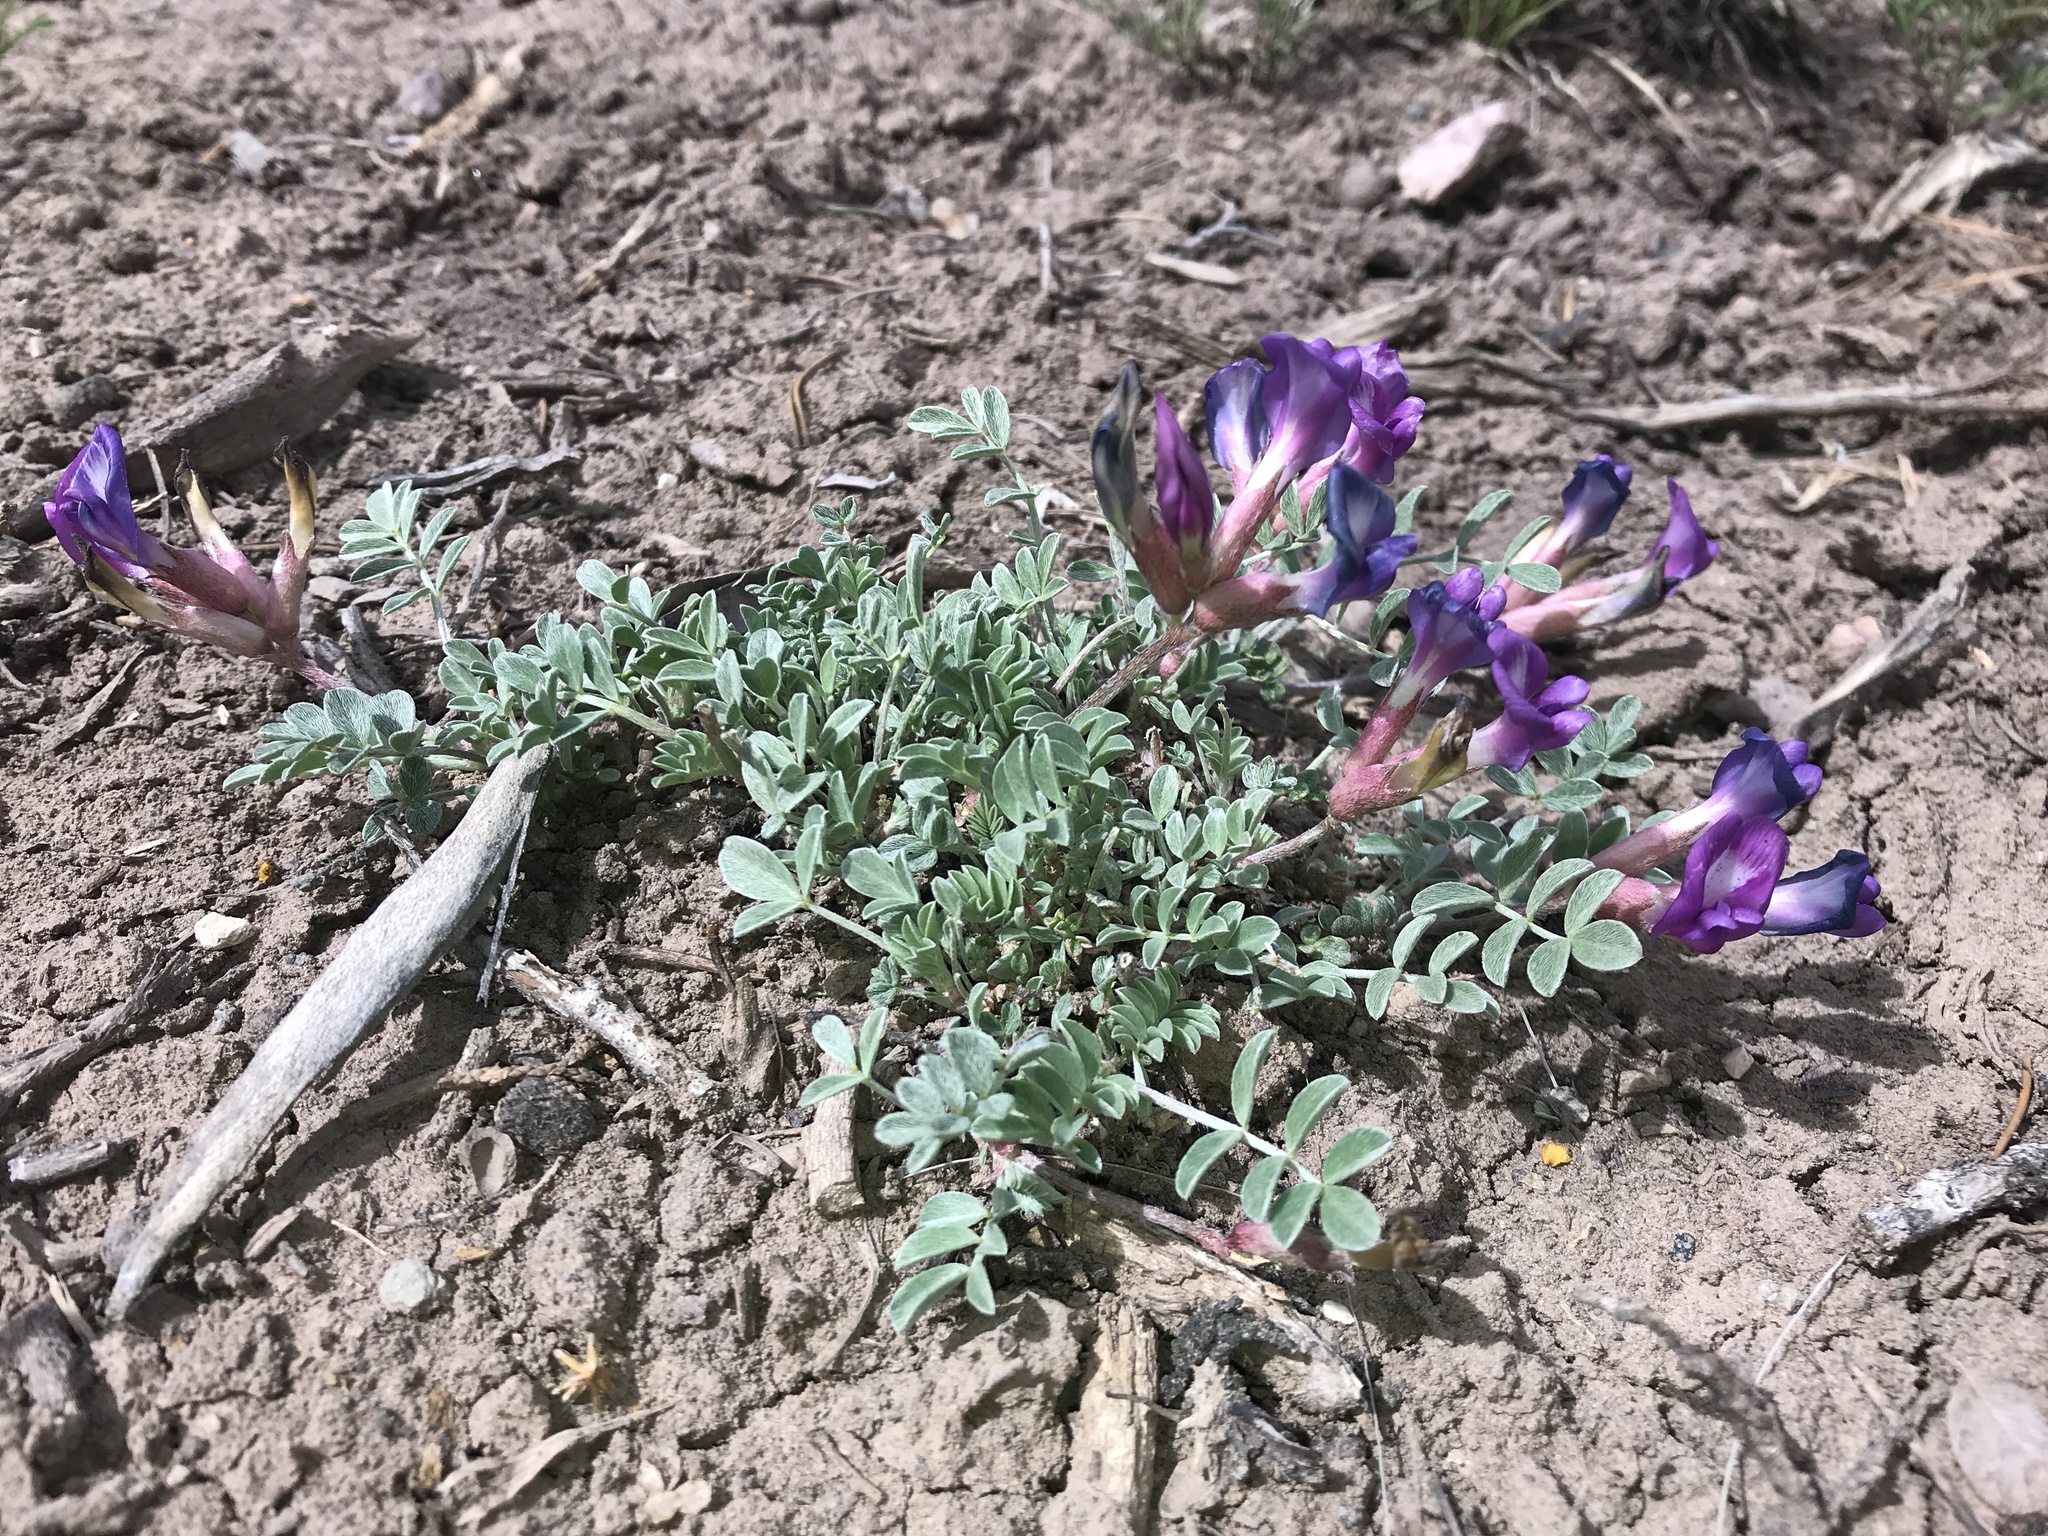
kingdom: Plantae
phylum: Tracheophyta
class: Magnoliopsida
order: Fabales
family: Fabaceae
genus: Astragalus
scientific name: Astragalus amphioxys
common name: Crescent milk-vetch
